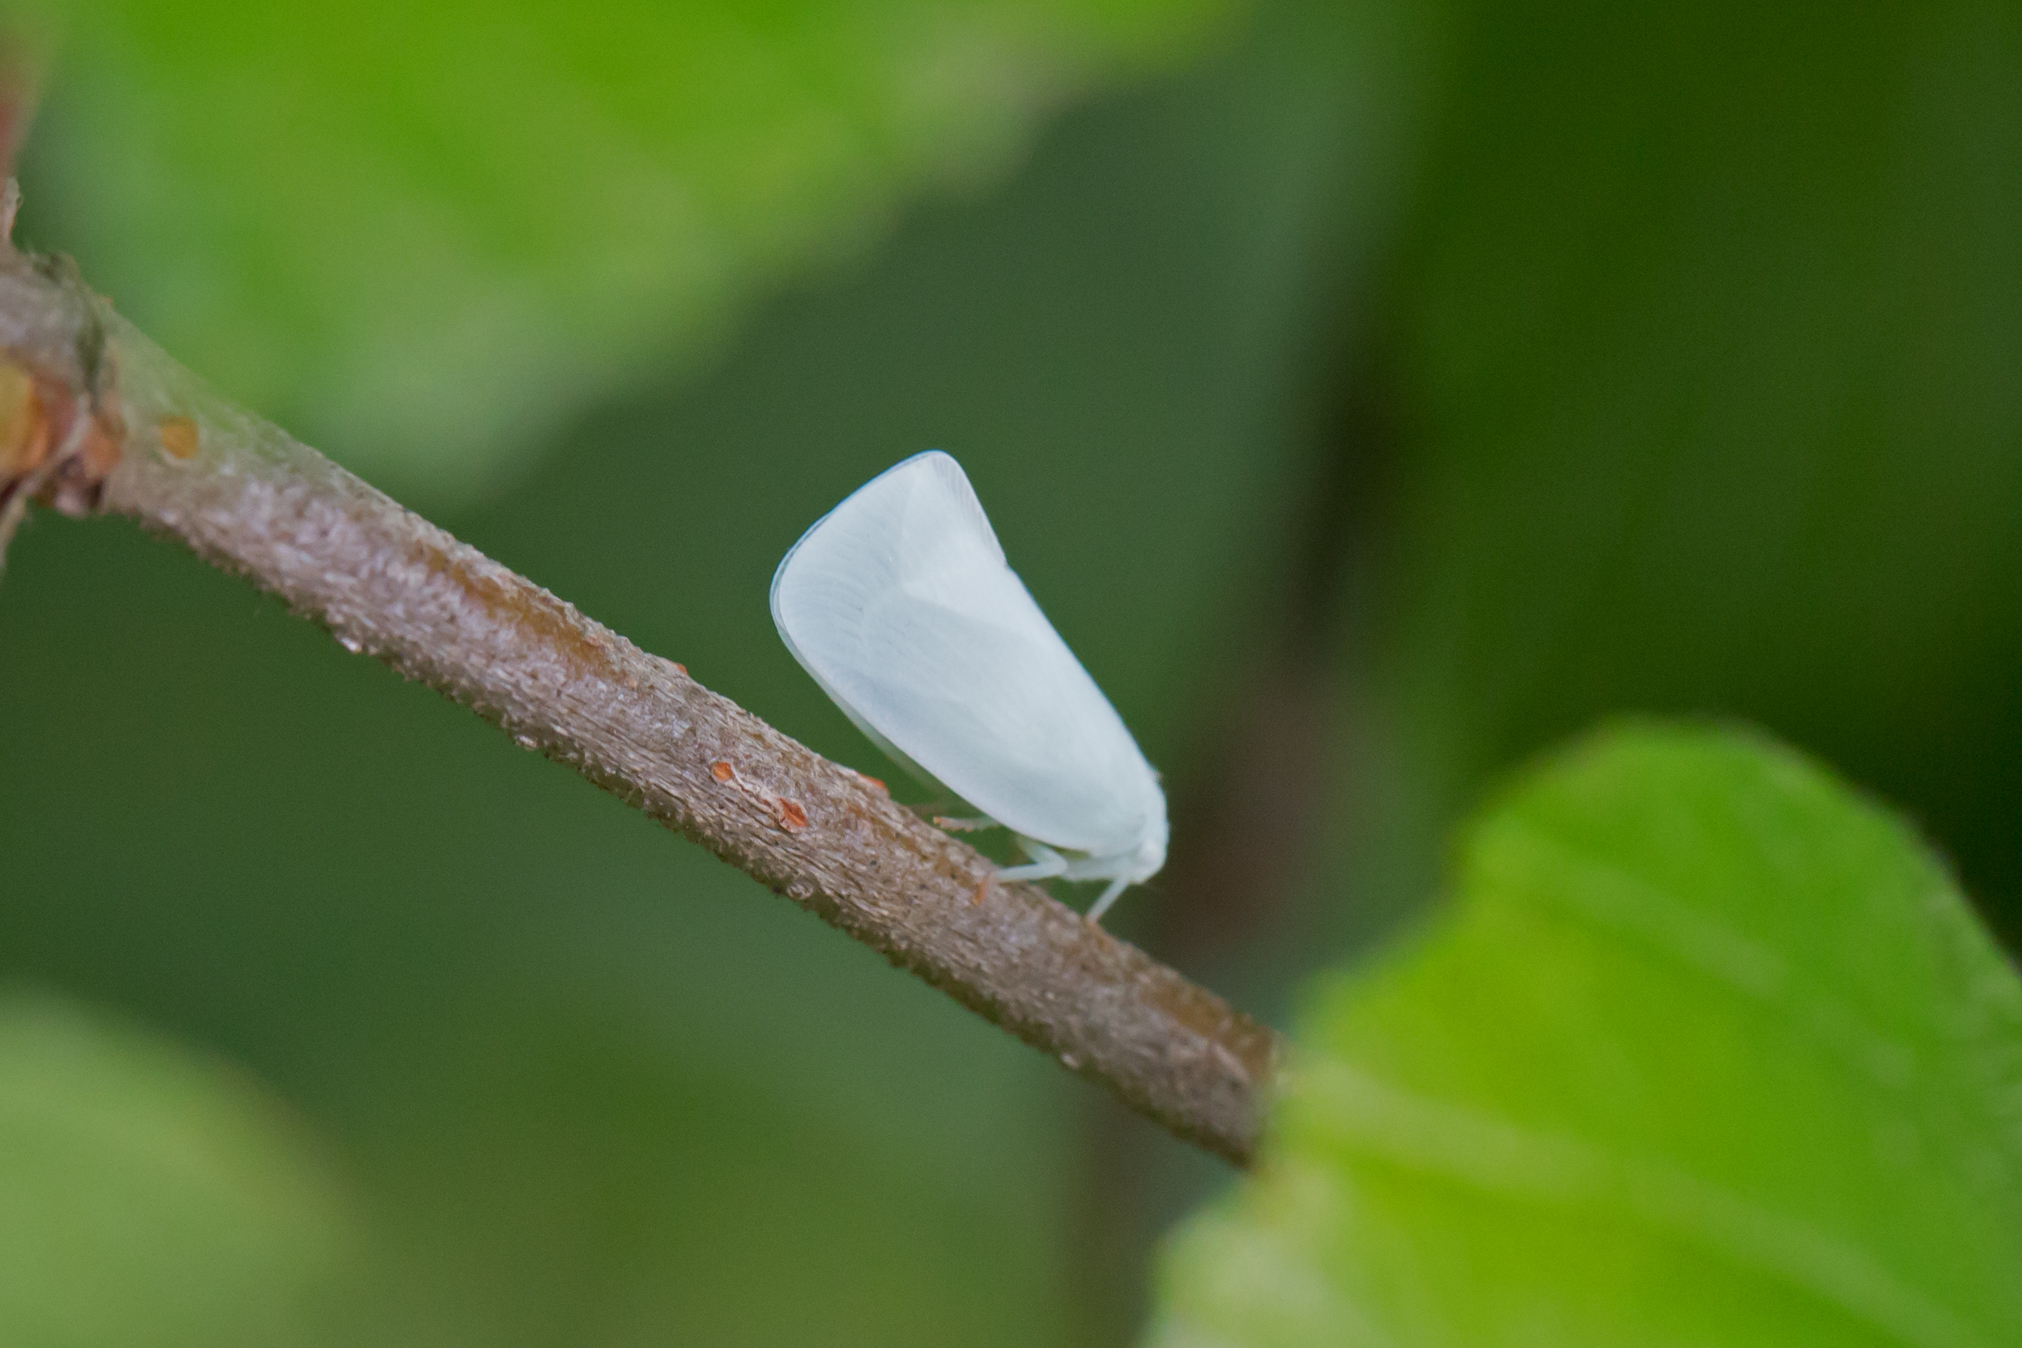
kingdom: Animalia
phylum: Arthropoda
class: Insecta
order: Hemiptera
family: Flatidae
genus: Flatormenis
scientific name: Flatormenis proxima
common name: Northern flatid planthopper
